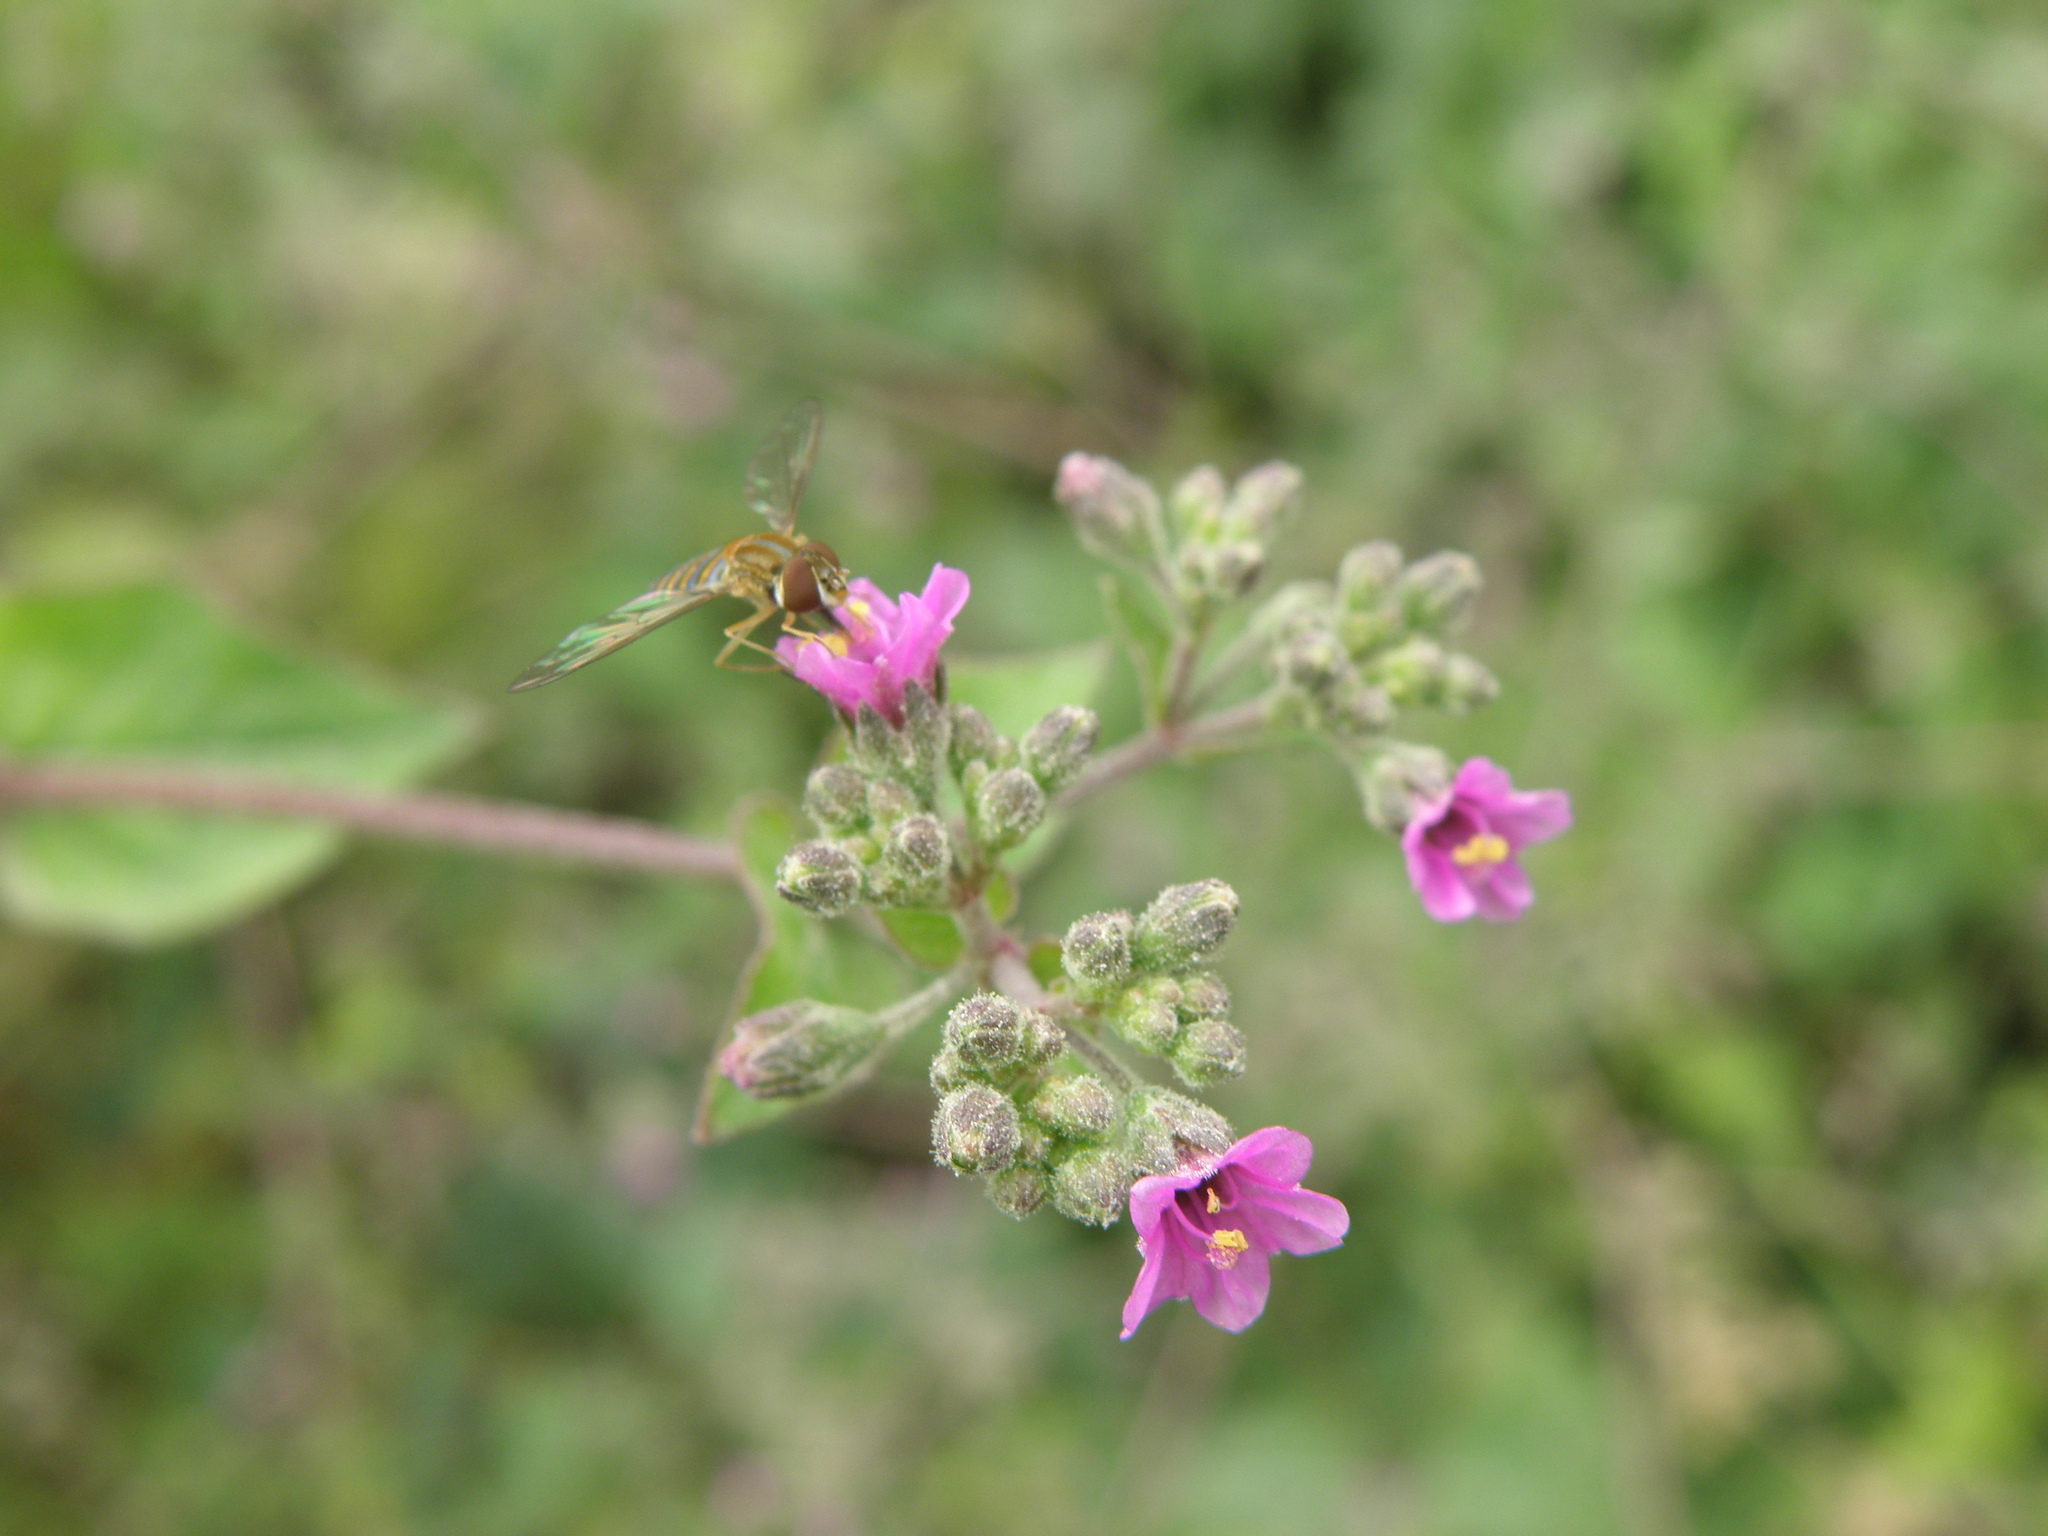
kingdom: Plantae
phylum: Tracheophyta
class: Magnoliopsida
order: Caryophyllales
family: Nyctaginaceae
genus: Mirabilis
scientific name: Mirabilis expansa
